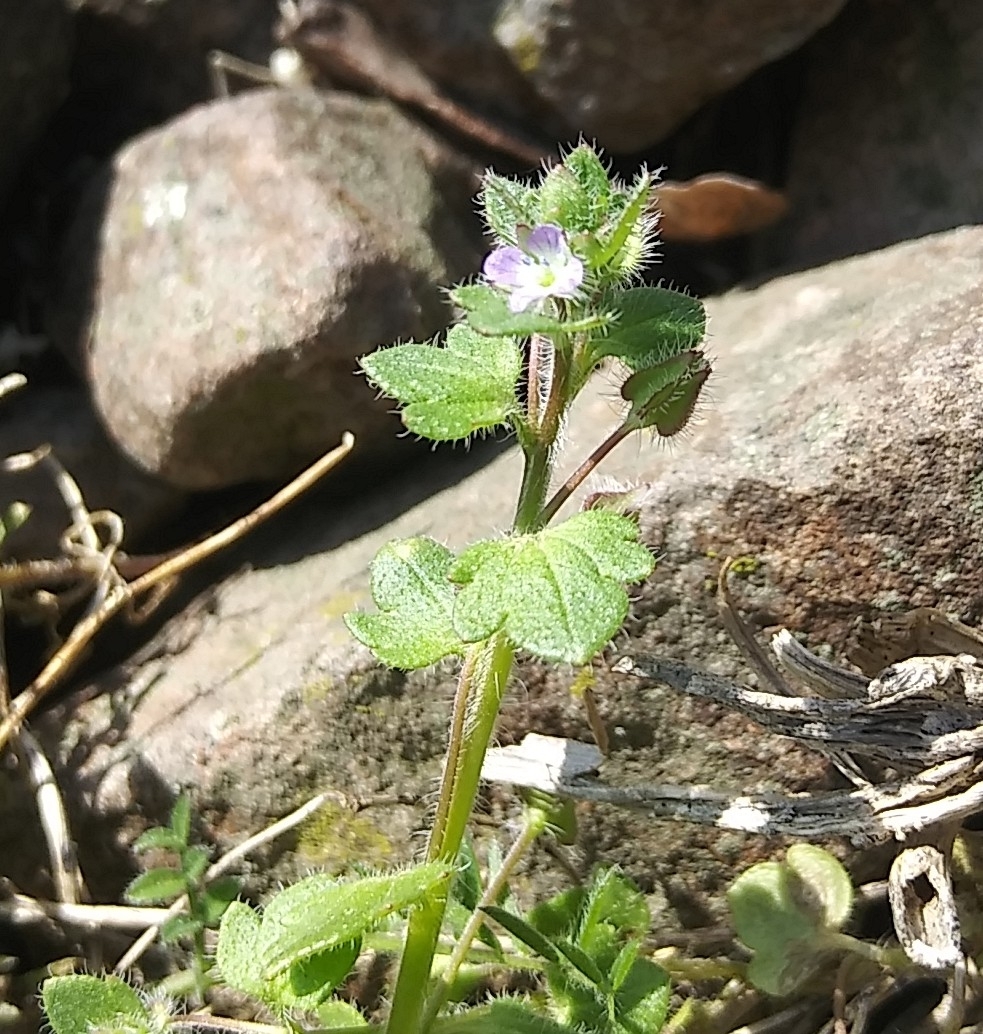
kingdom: Plantae
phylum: Tracheophyta
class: Magnoliopsida
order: Lamiales
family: Plantaginaceae
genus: Veronica
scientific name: Veronica hederifolia
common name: Ivy-leaved speedwell
